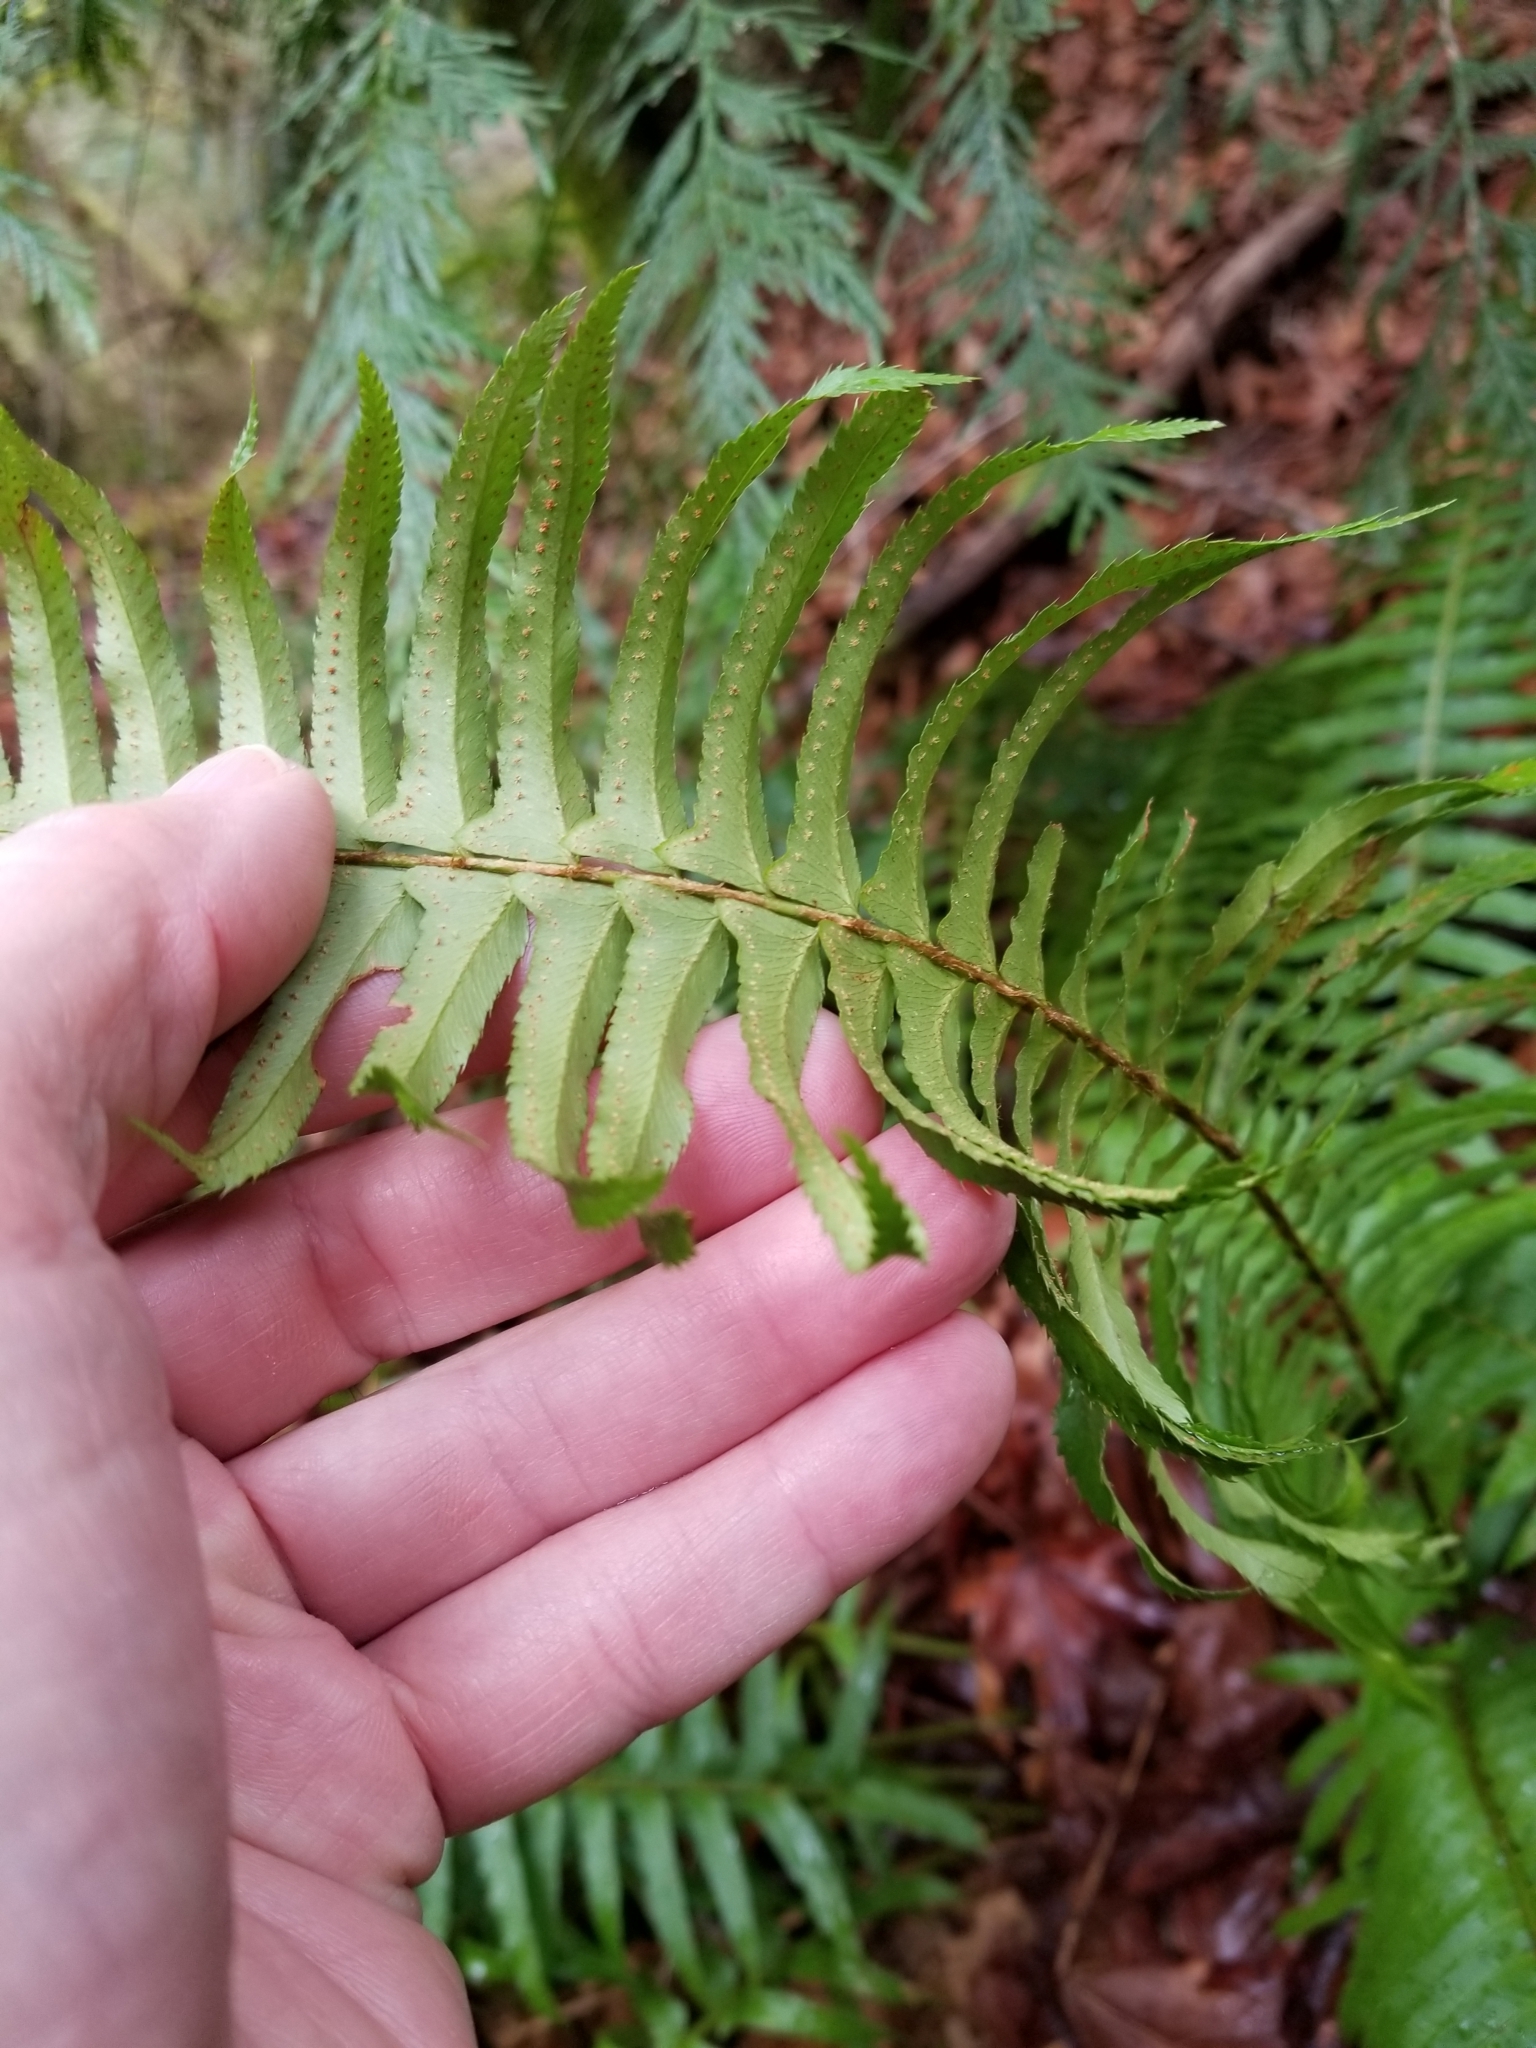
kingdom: Plantae
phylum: Tracheophyta
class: Polypodiopsida
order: Polypodiales
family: Dryopteridaceae
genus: Polystichum
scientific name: Polystichum munitum
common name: Western sword-fern
